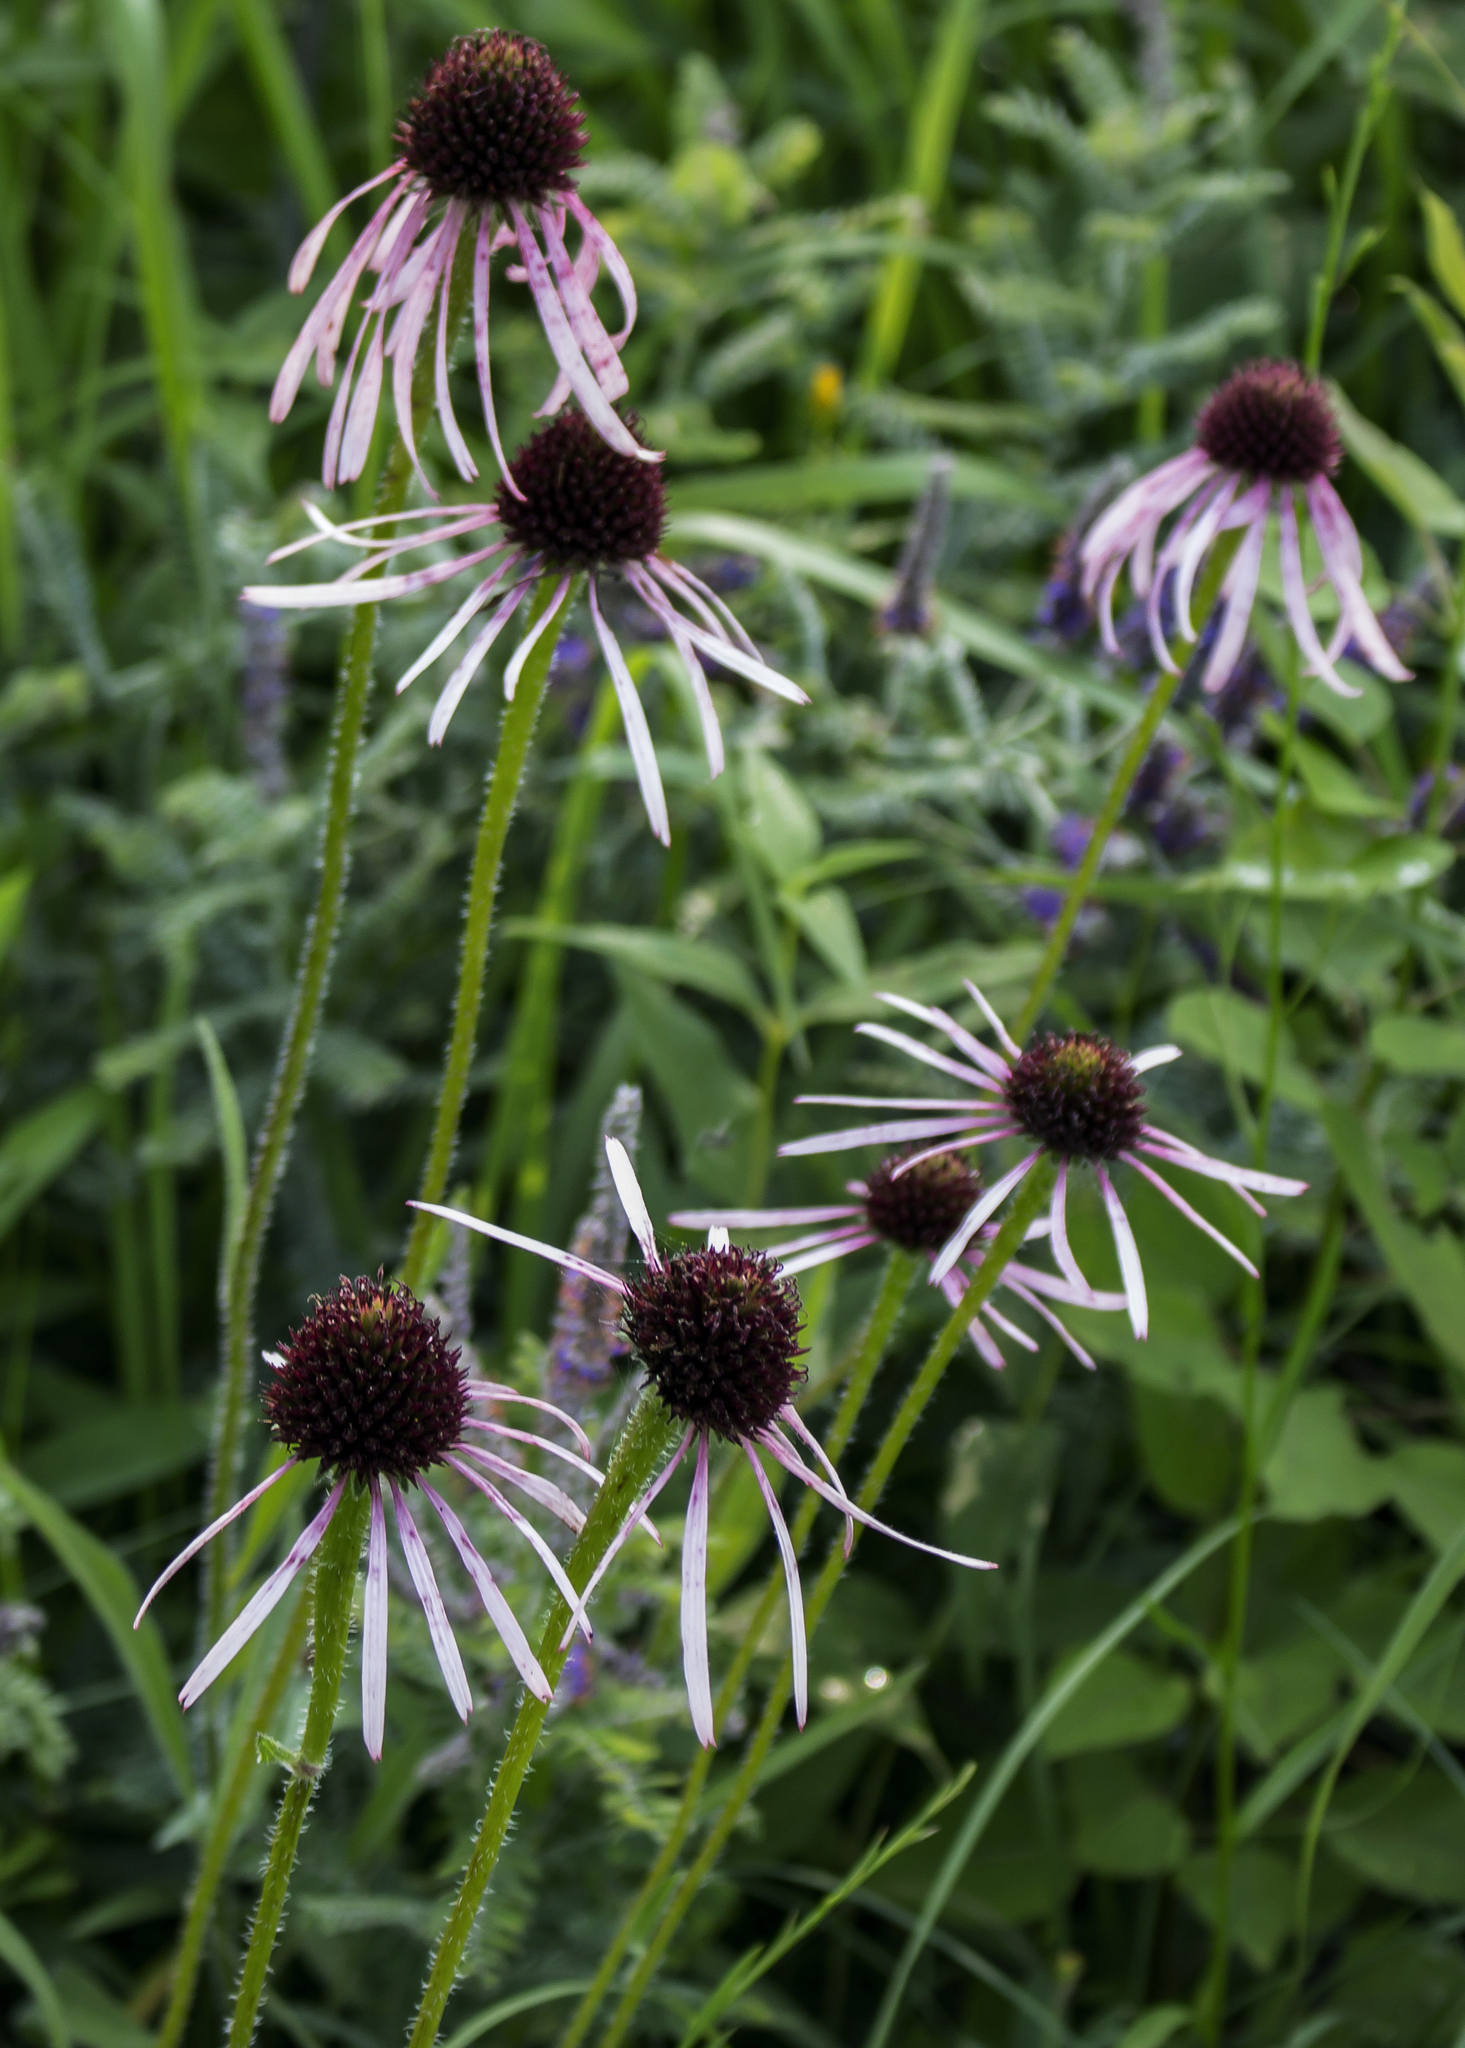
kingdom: Plantae
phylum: Tracheophyta
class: Magnoliopsida
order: Asterales
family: Asteraceae
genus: Echinacea
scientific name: Echinacea pallida
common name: Pale echinacea
